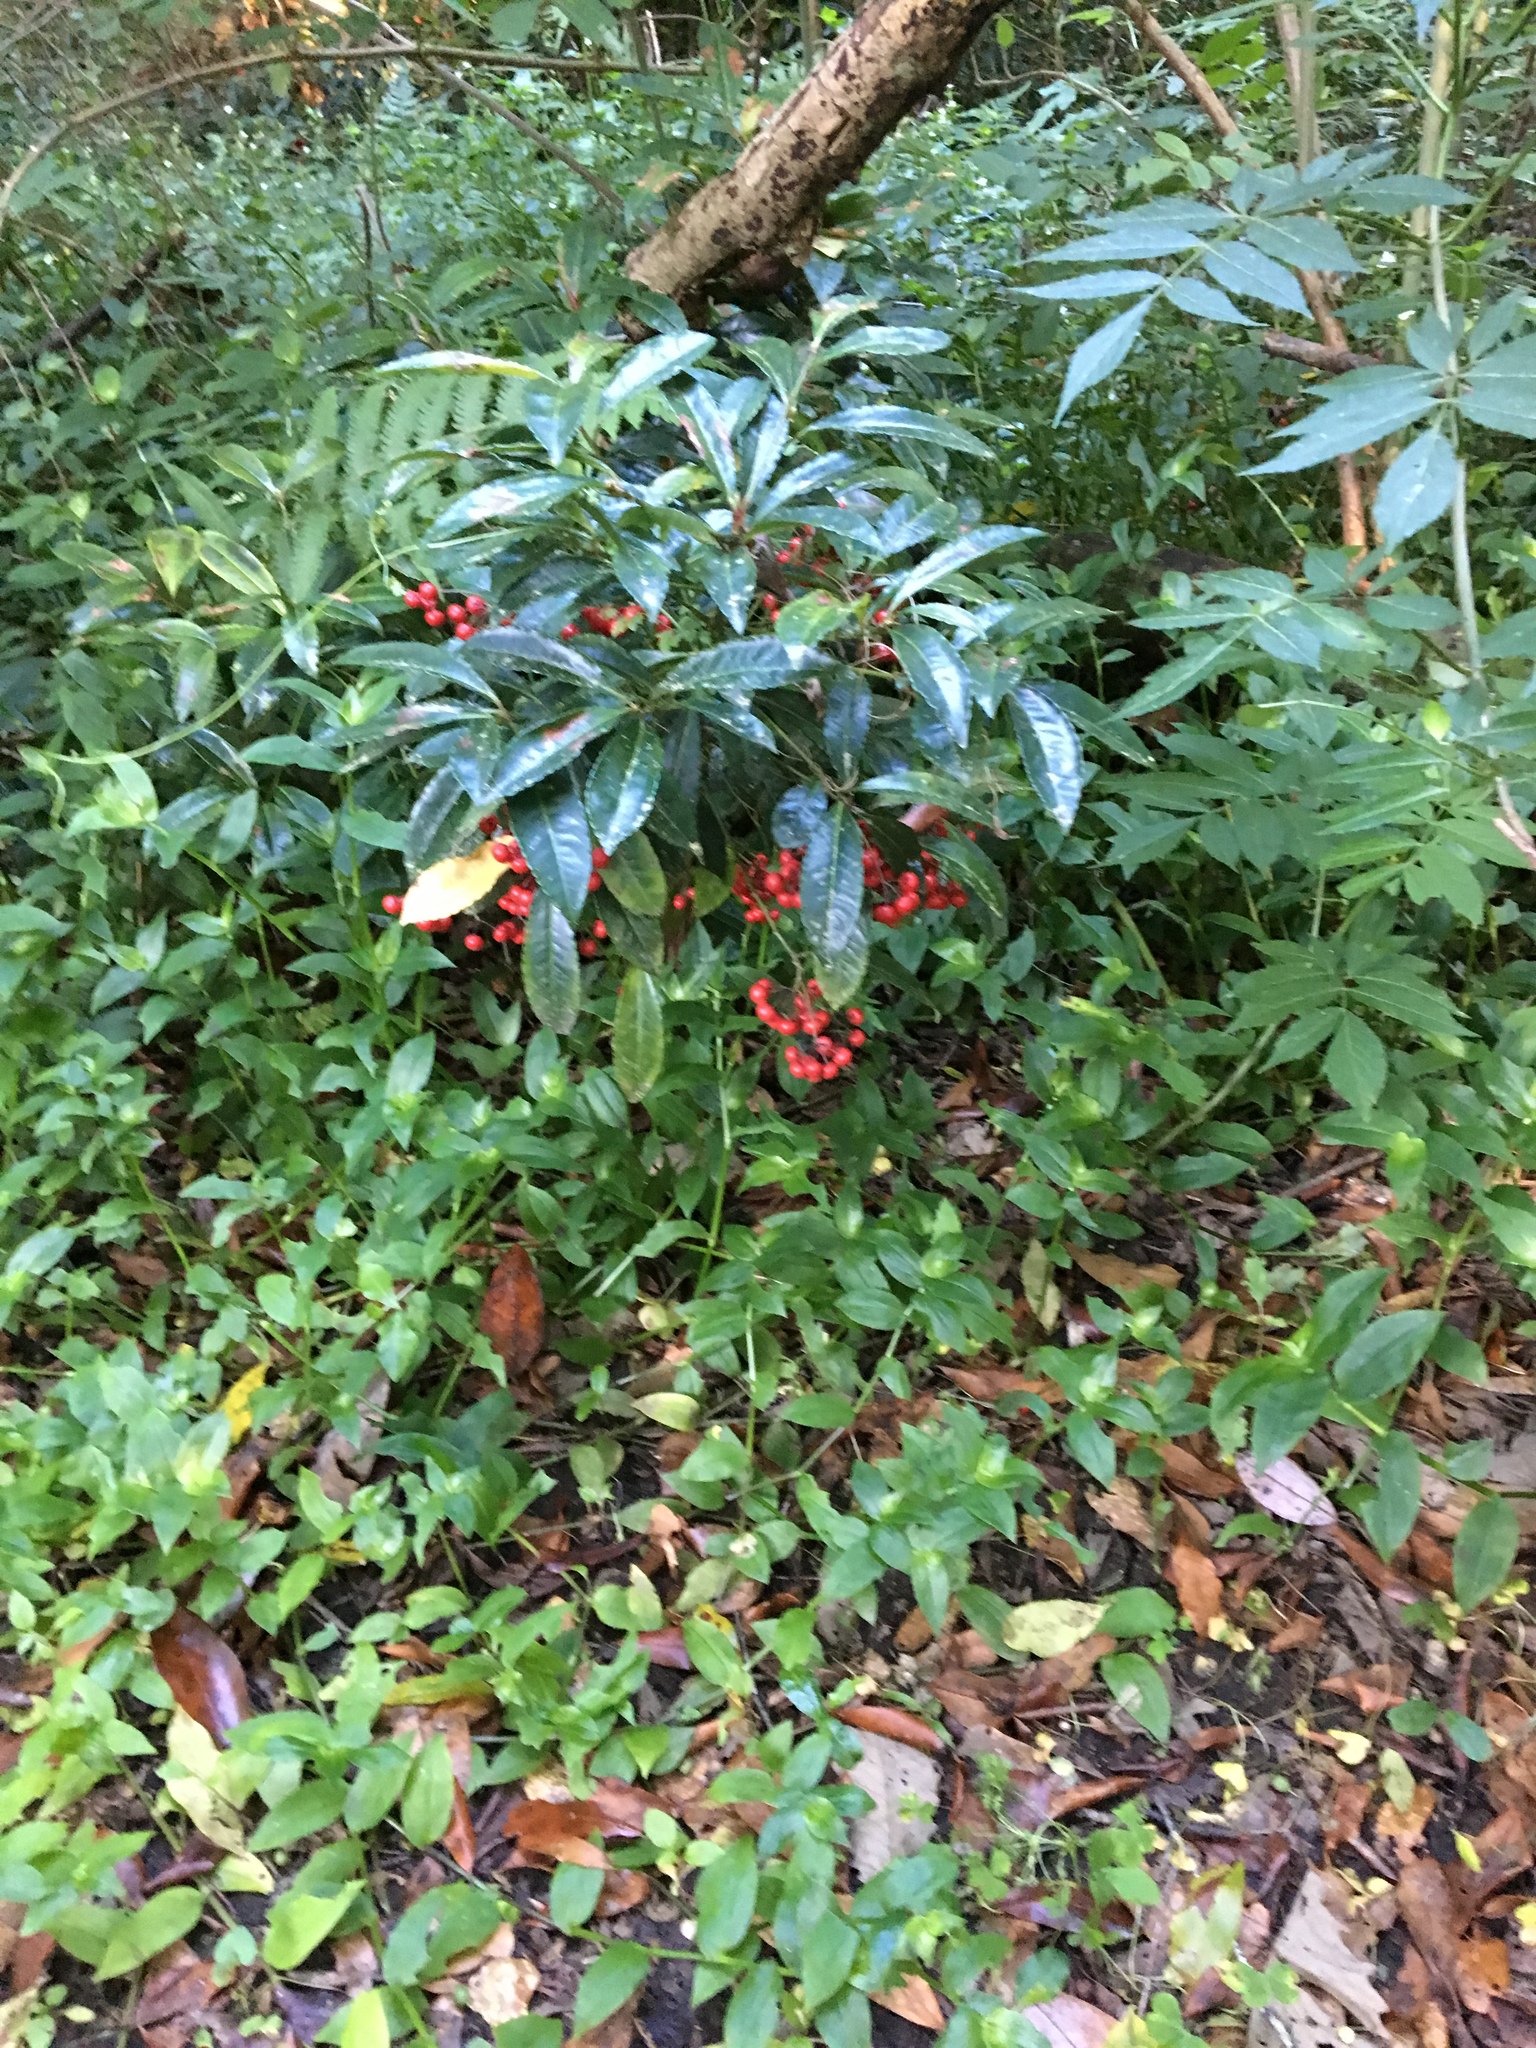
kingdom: Plantae
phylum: Tracheophyta
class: Magnoliopsida
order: Ericales
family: Primulaceae
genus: Ardisia
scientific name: Ardisia crenata
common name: Hen's eyes
